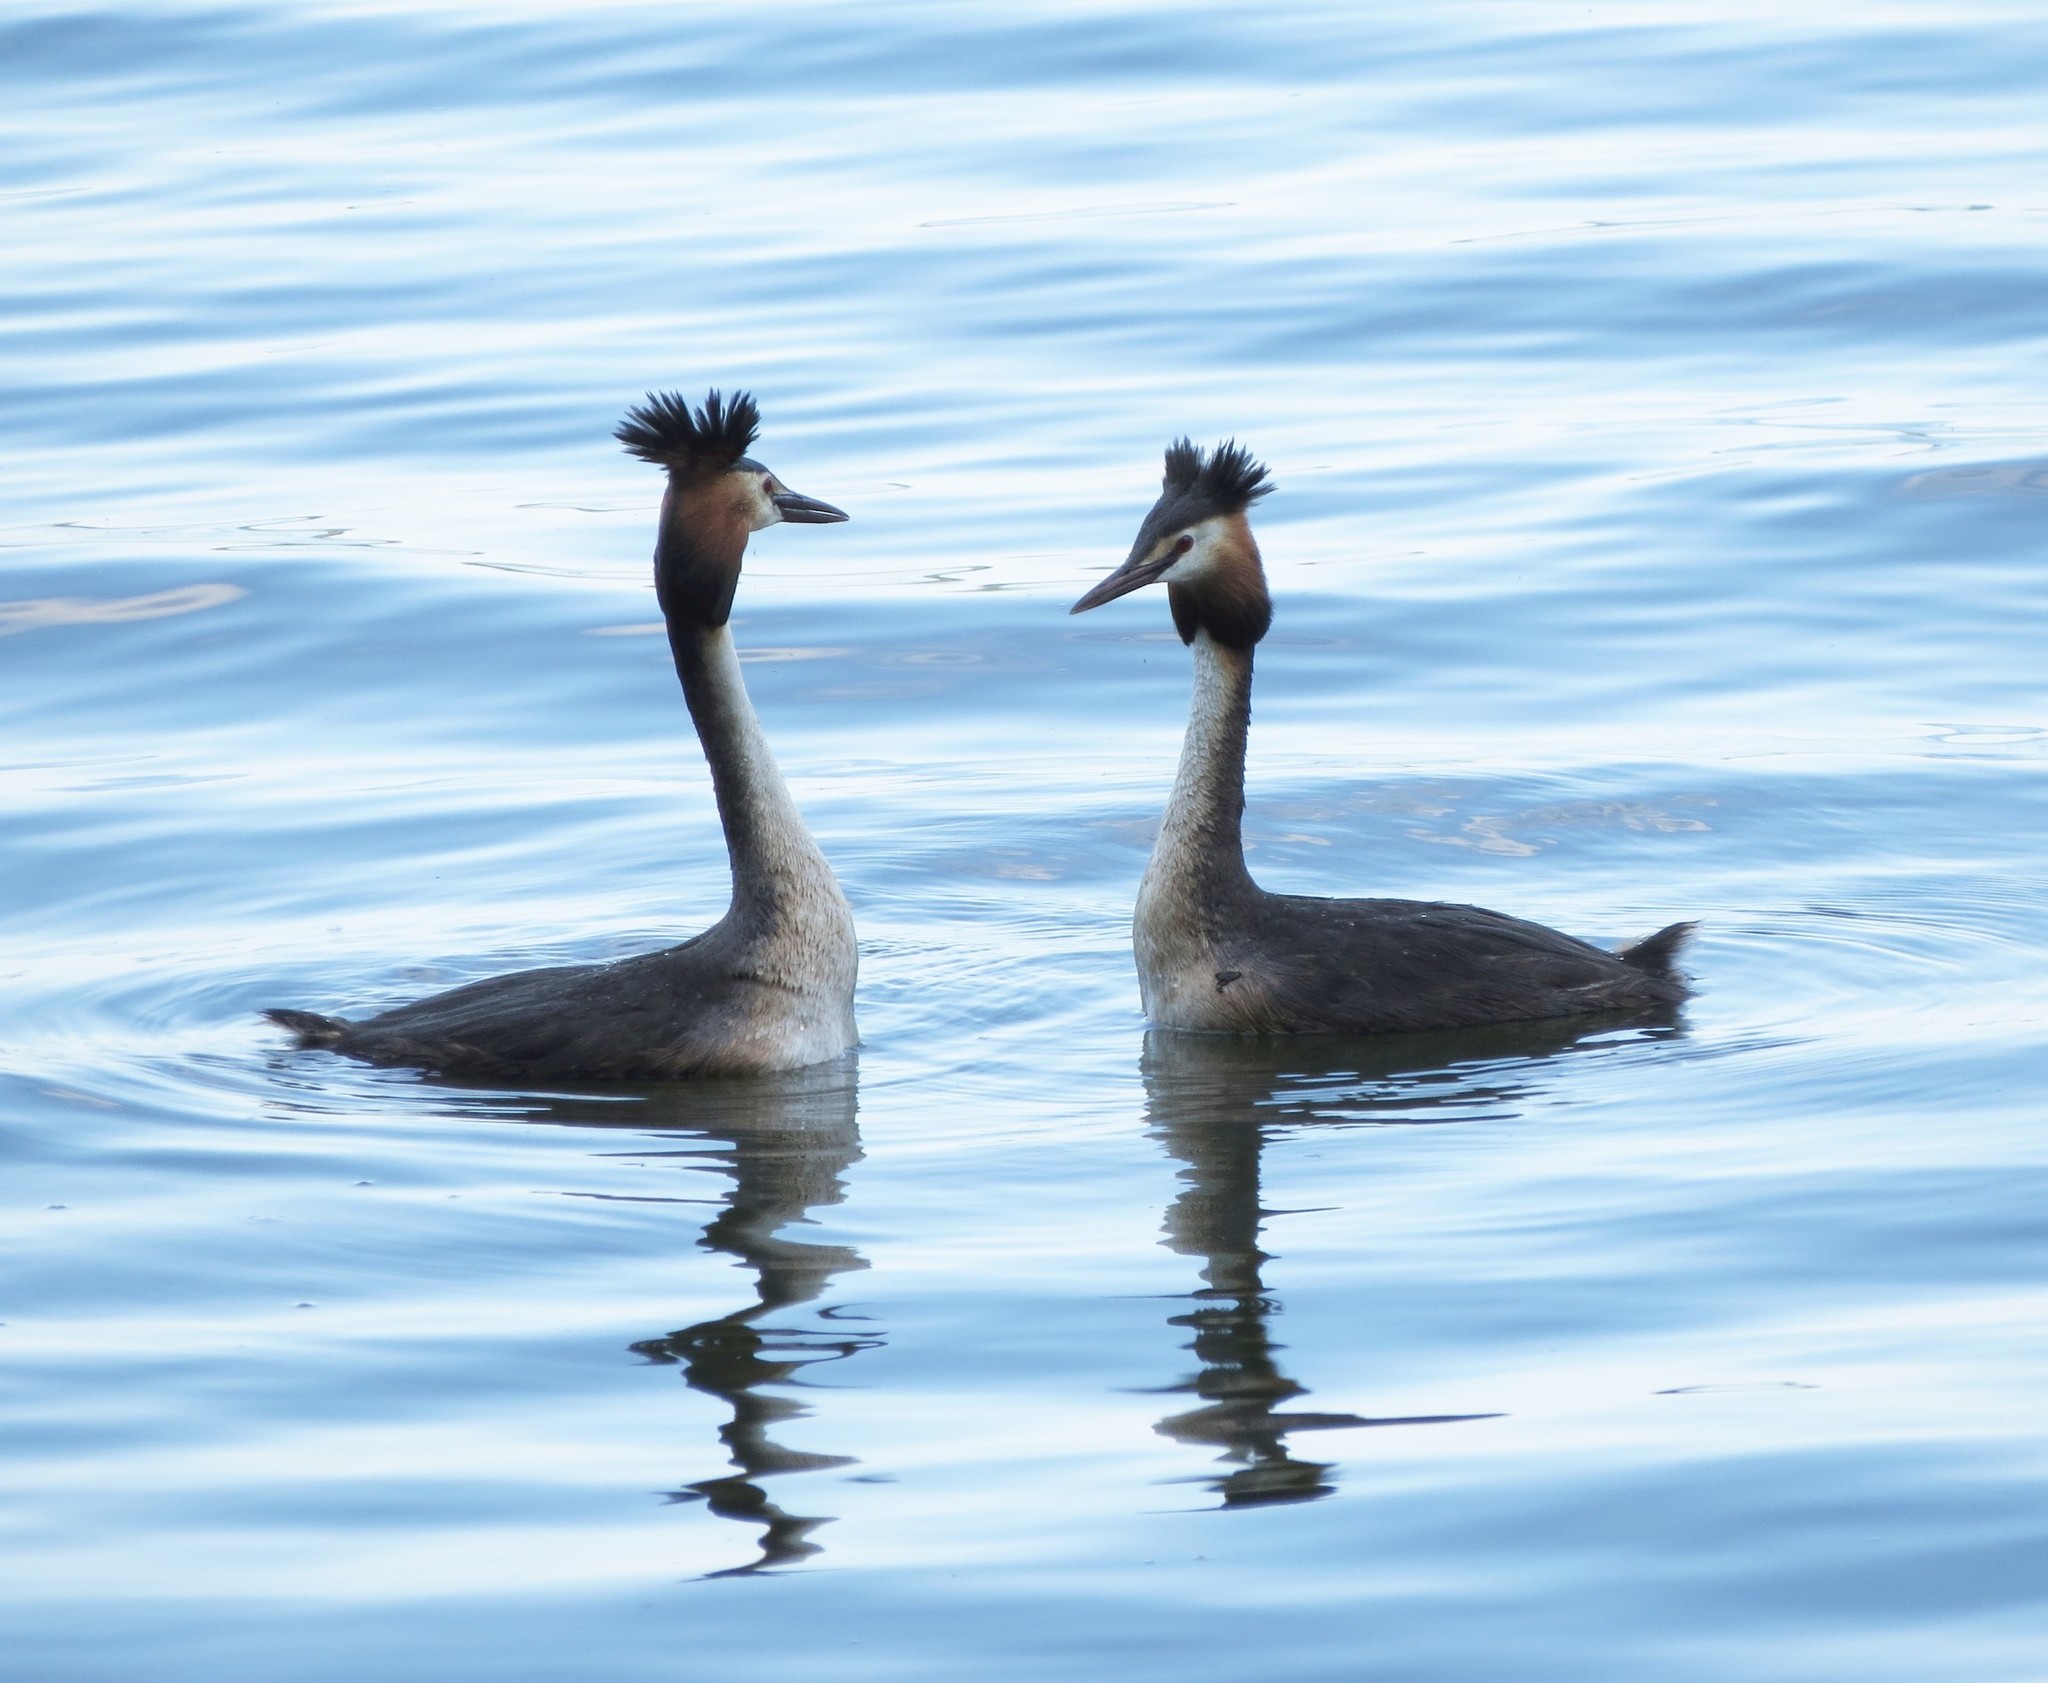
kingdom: Animalia
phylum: Chordata
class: Aves
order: Podicipediformes
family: Podicipedidae
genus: Podiceps
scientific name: Podiceps cristatus
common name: Great crested grebe
